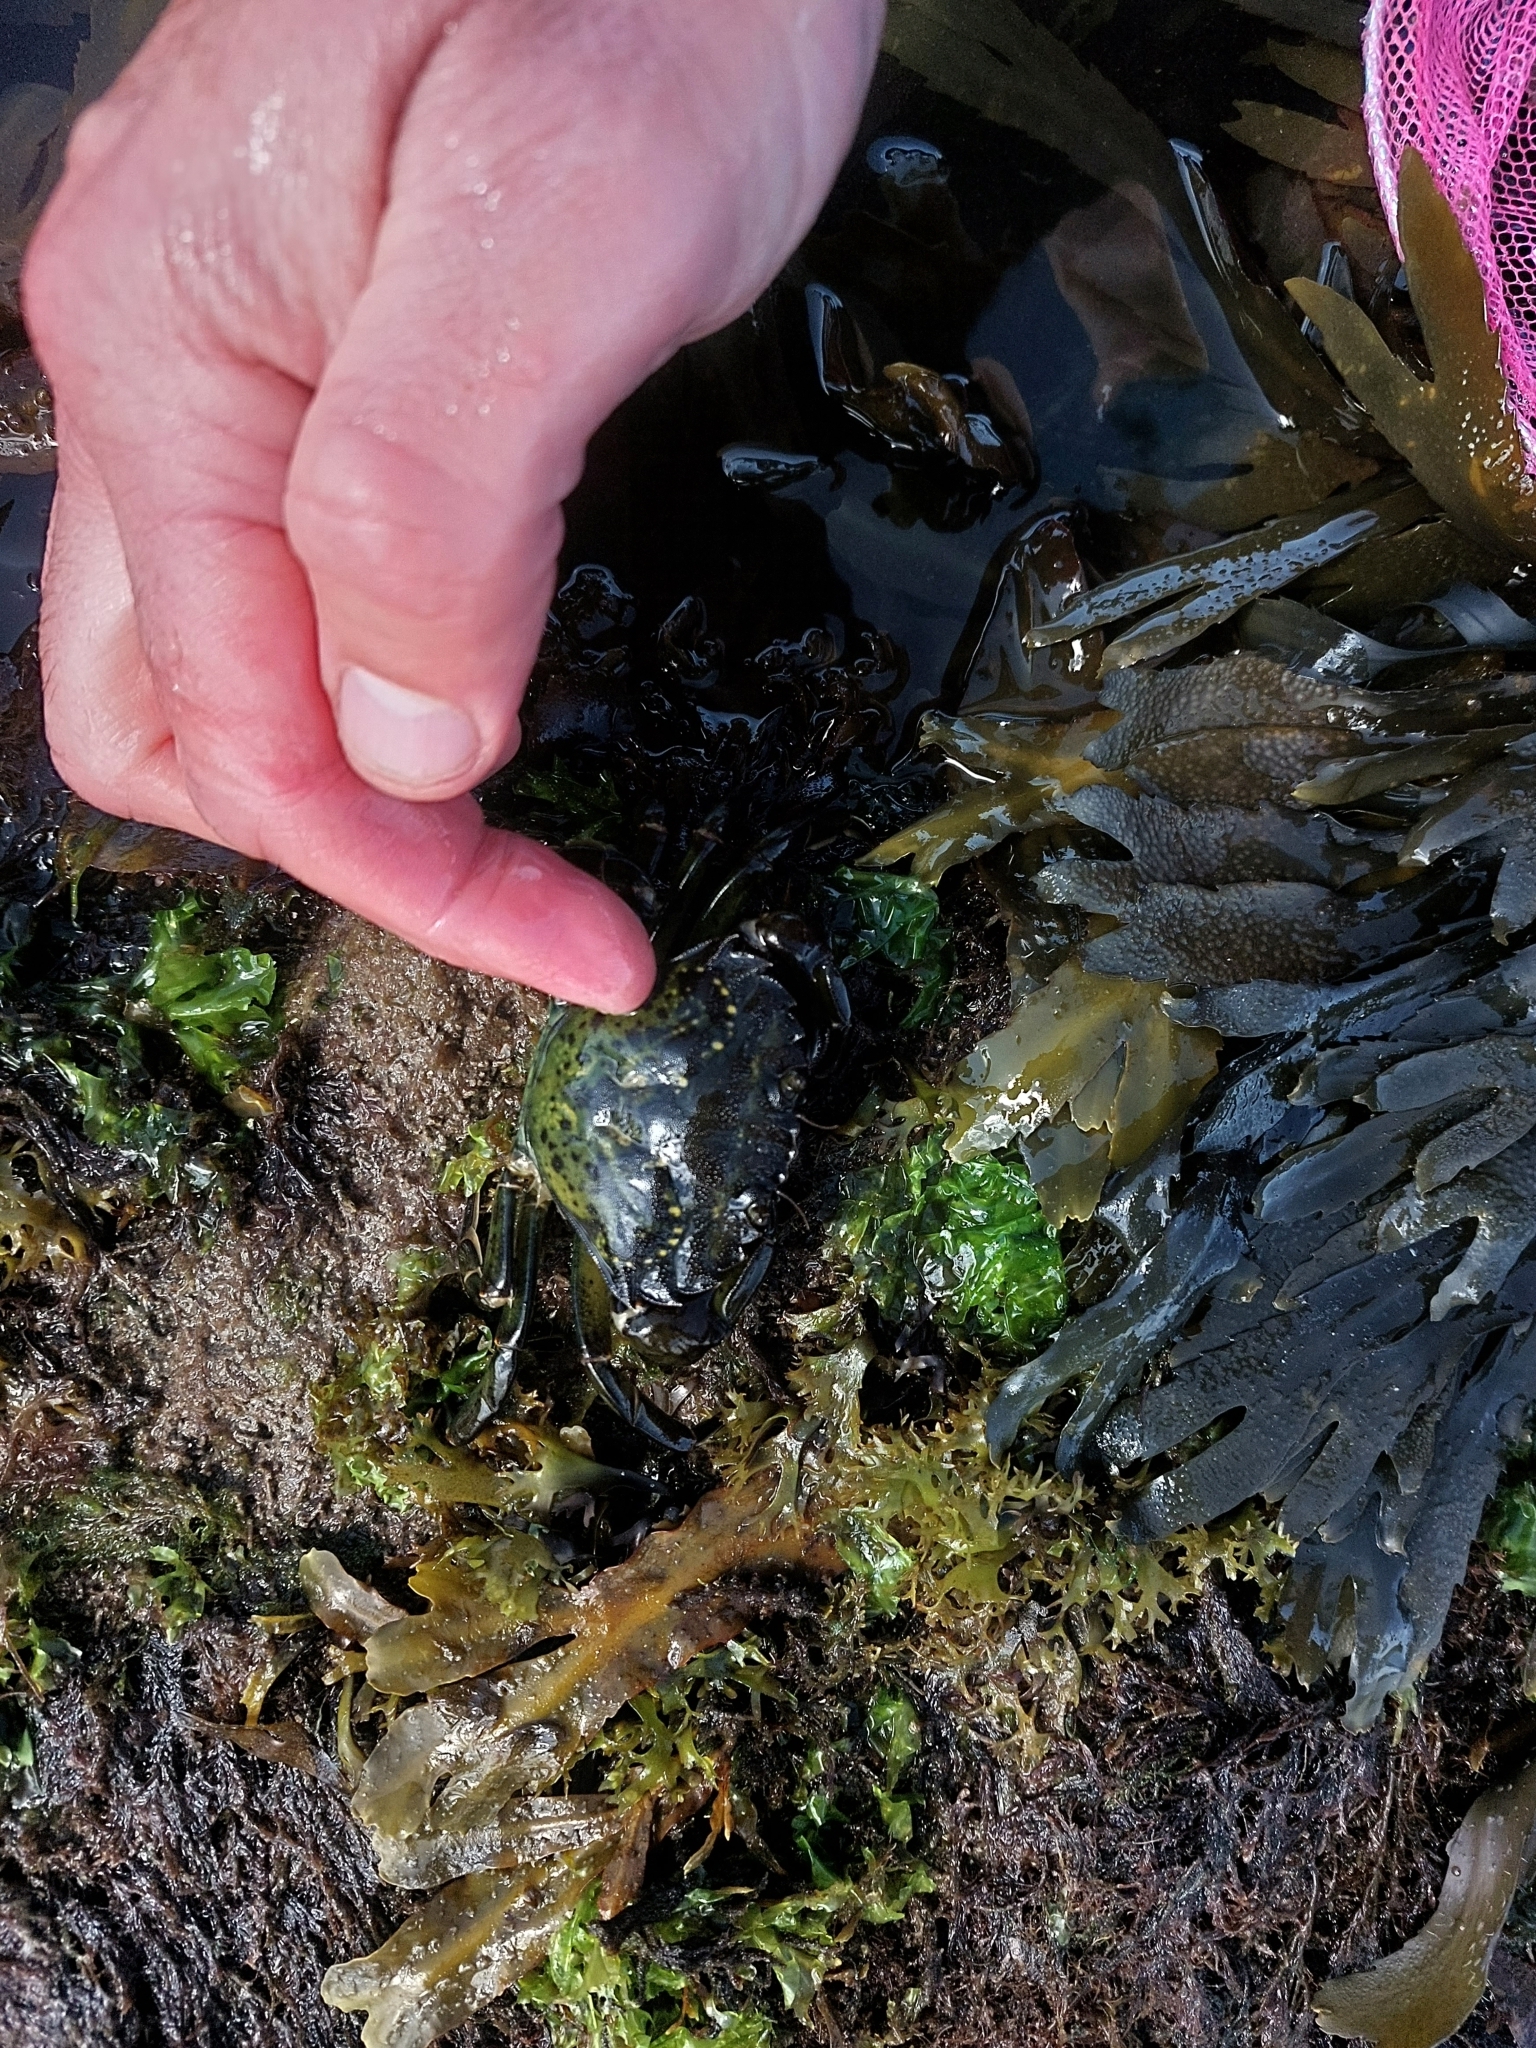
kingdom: Animalia
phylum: Arthropoda
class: Malacostraca
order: Decapoda
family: Carcinidae
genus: Carcinus
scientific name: Carcinus maenas
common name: European green crab
